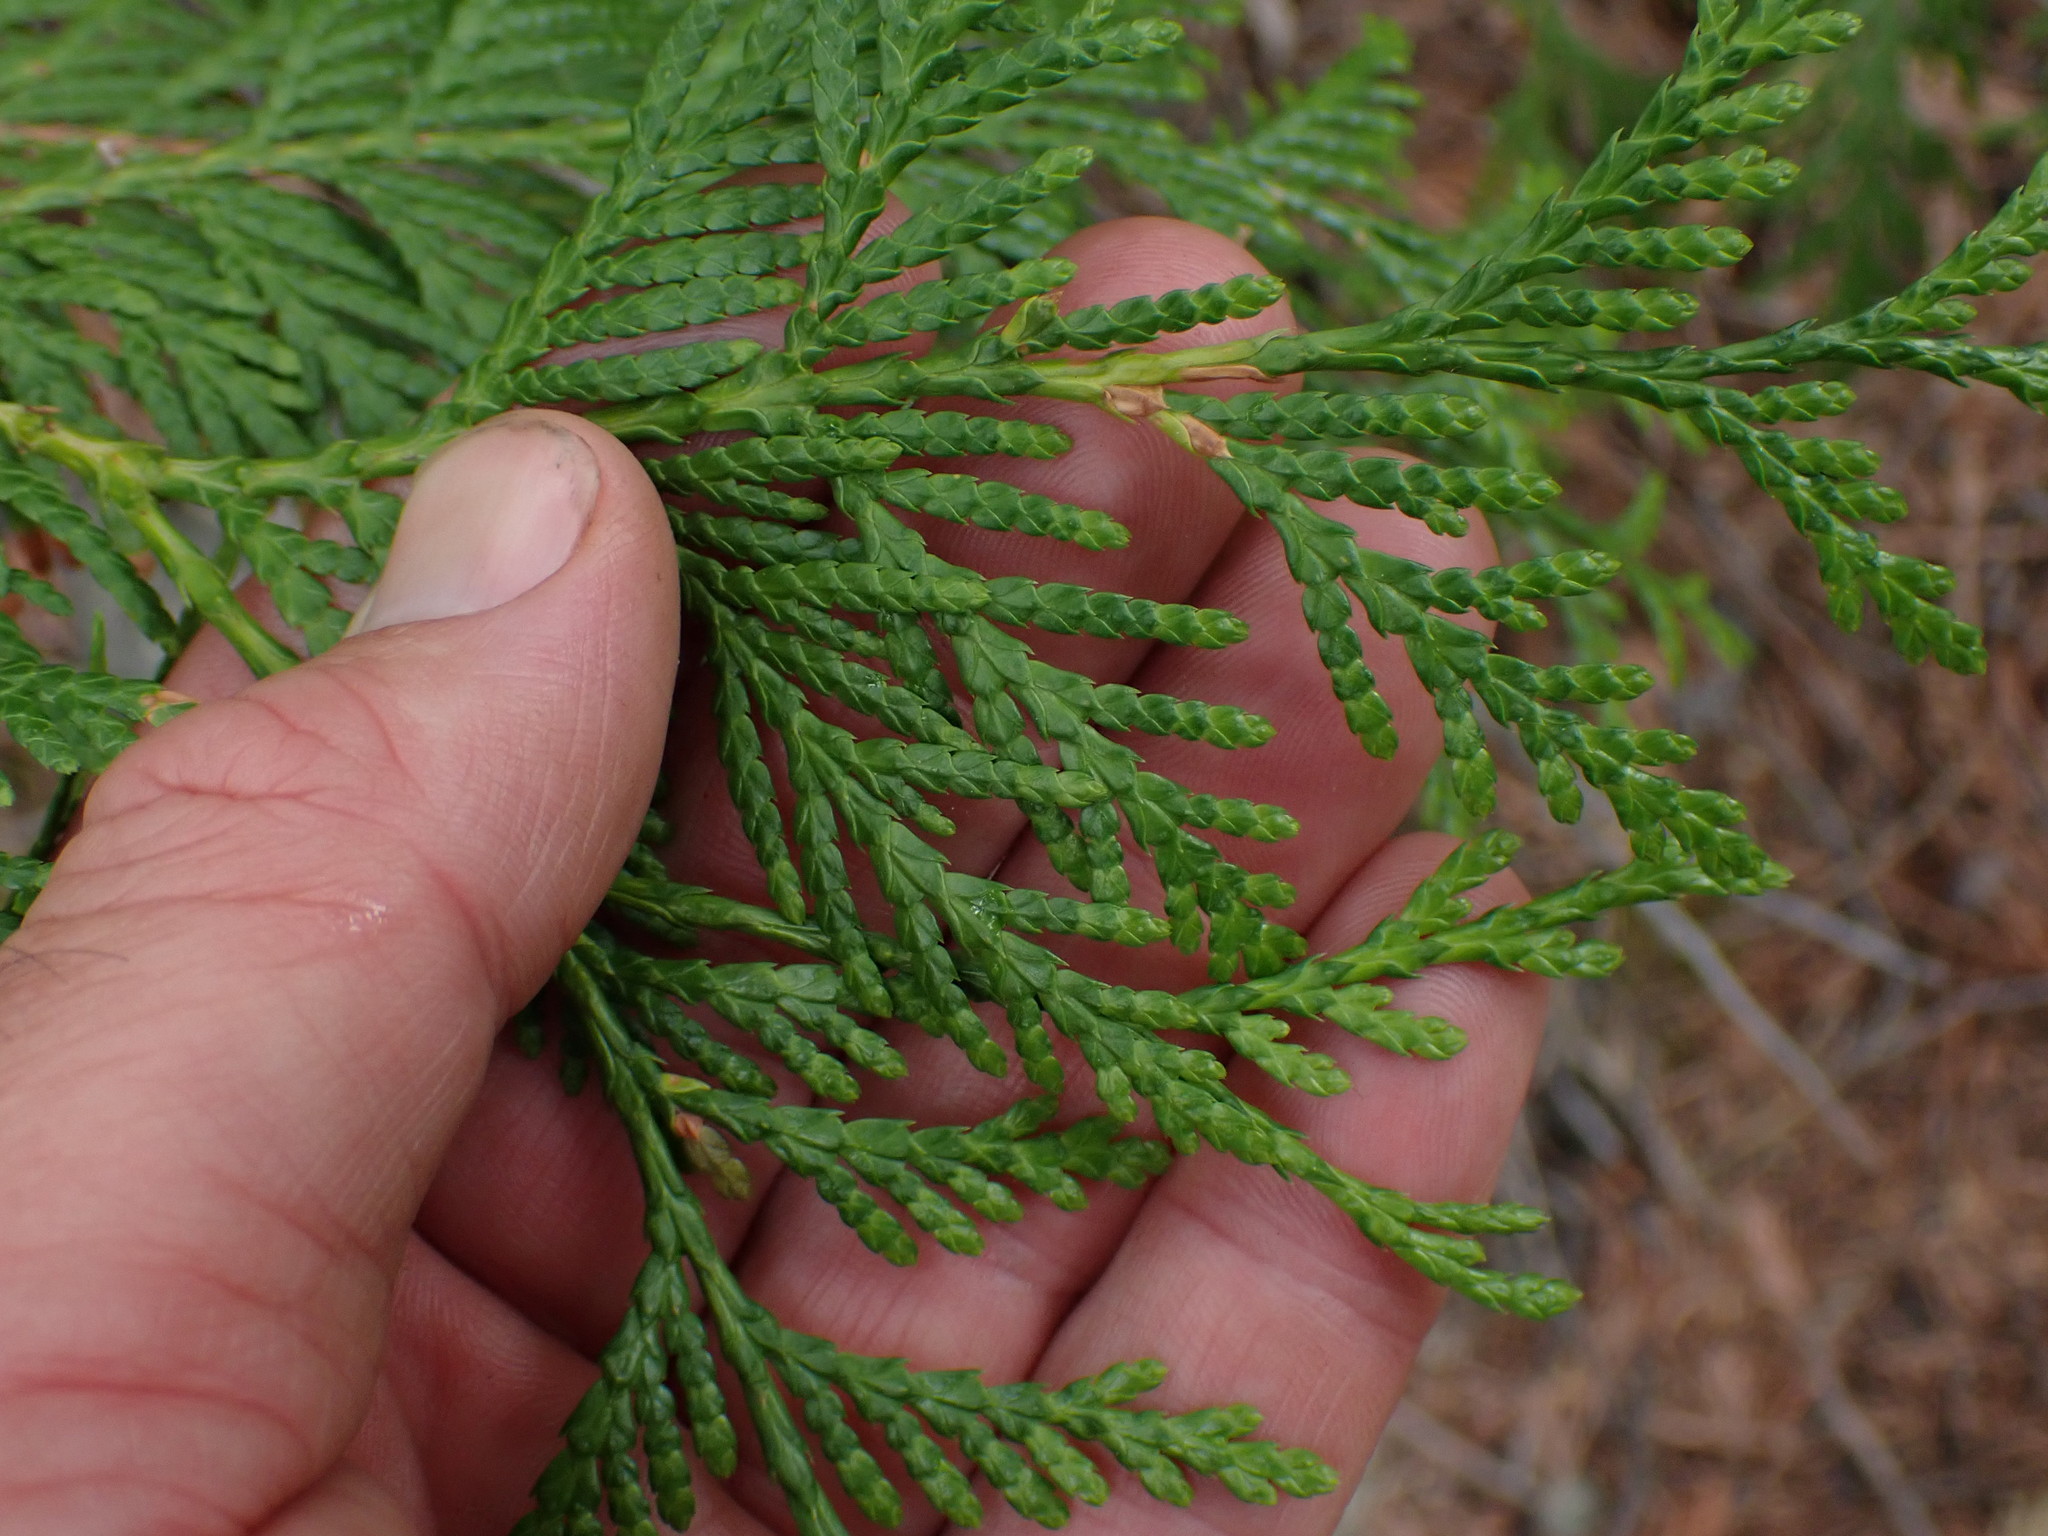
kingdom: Plantae
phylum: Tracheophyta
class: Pinopsida
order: Pinales
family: Cupressaceae
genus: Thuja
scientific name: Thuja plicata
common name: Western red-cedar
